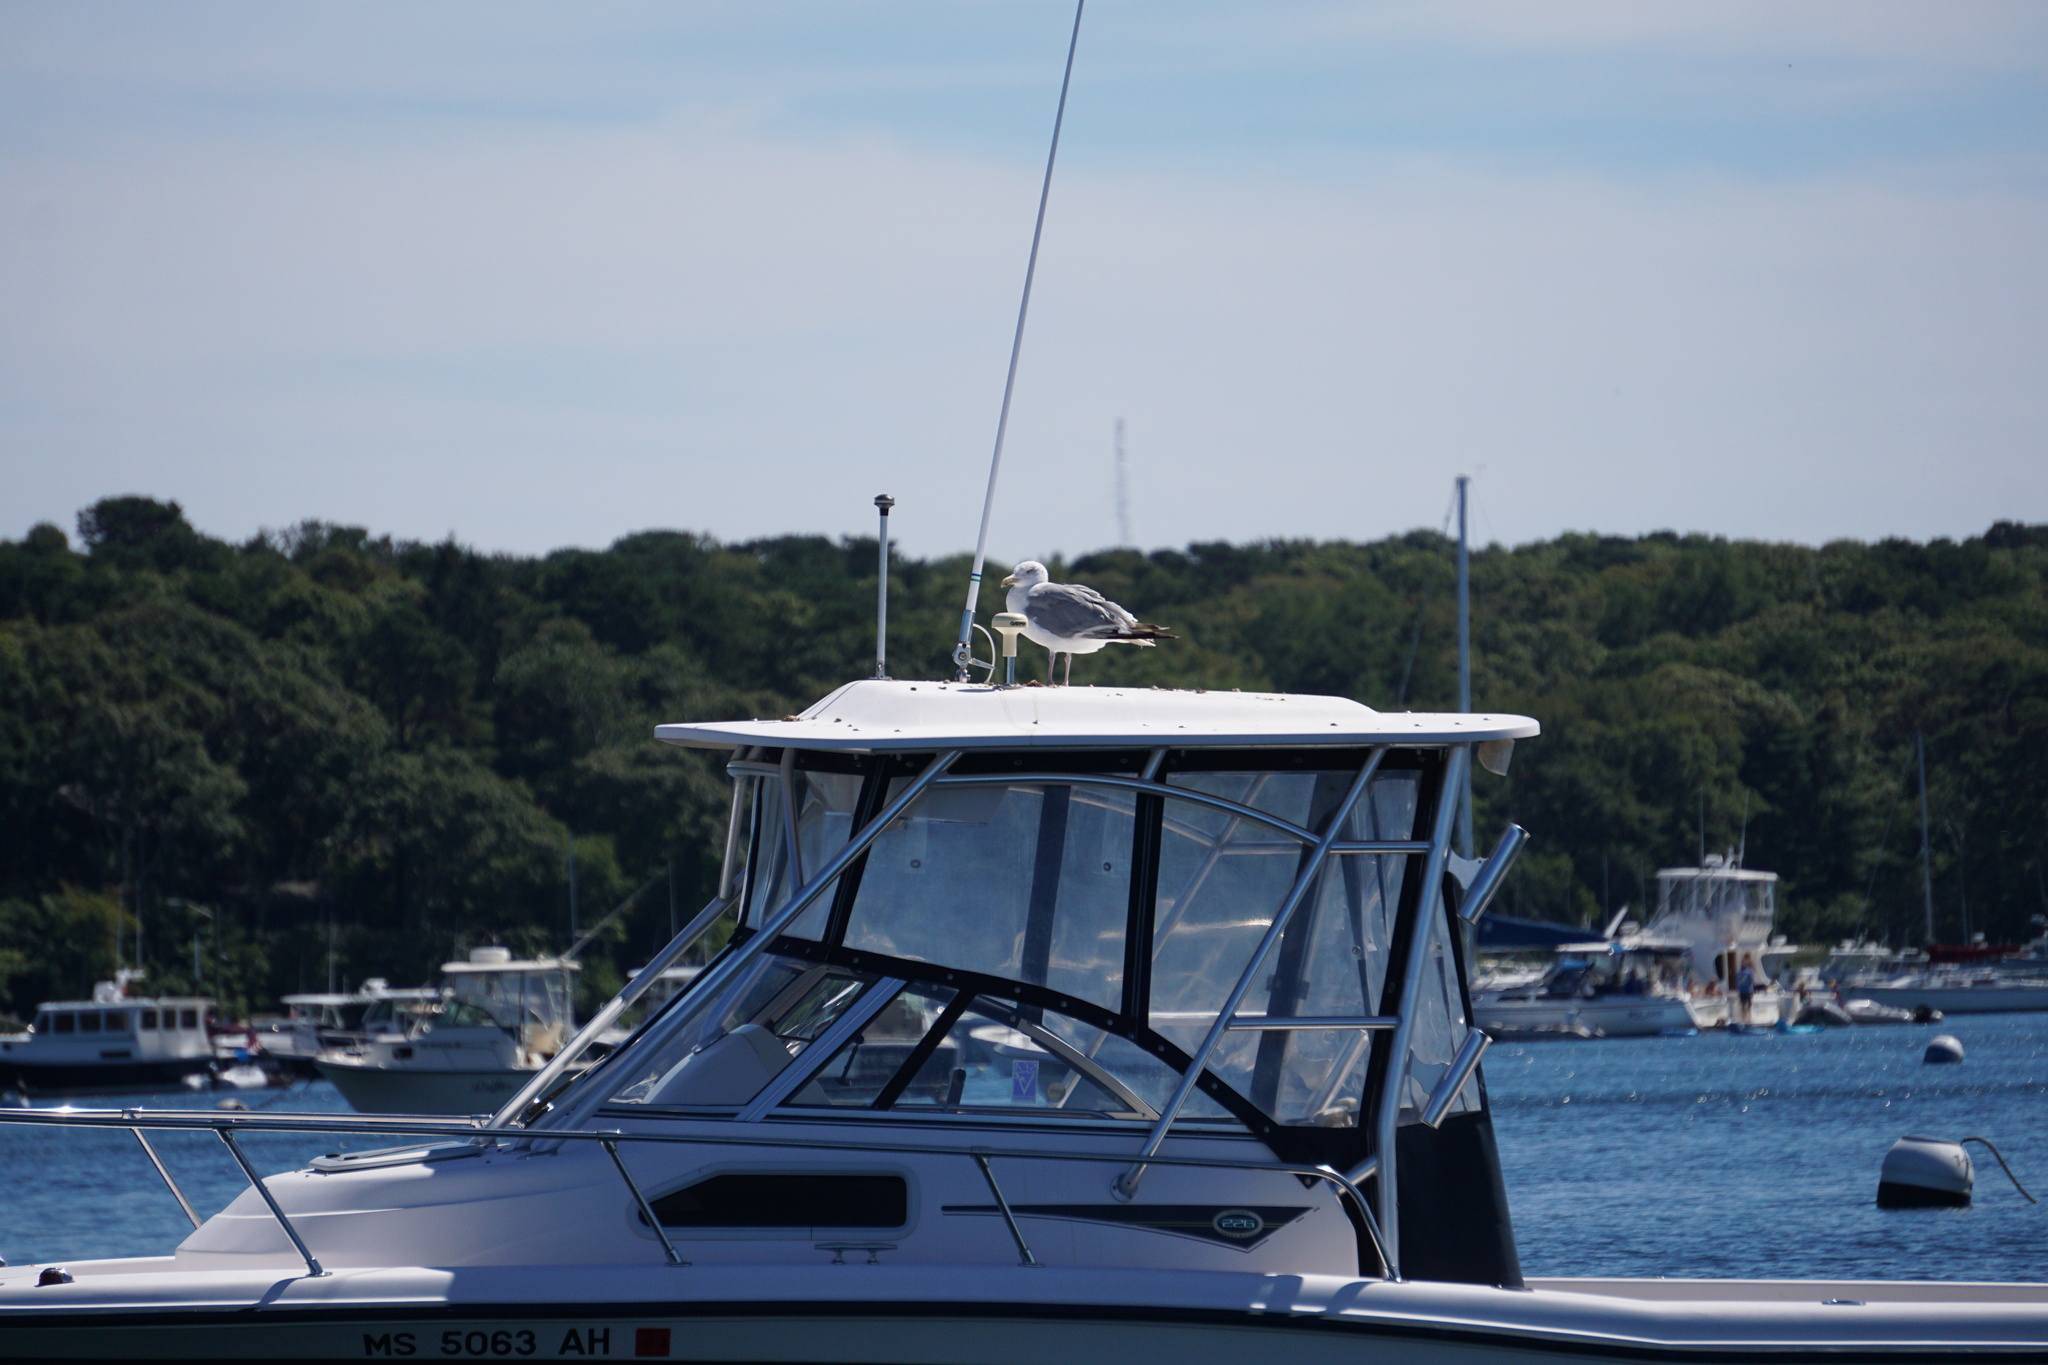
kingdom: Animalia
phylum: Chordata
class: Aves
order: Charadriiformes
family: Laridae
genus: Larus
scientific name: Larus argentatus
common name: Herring gull
